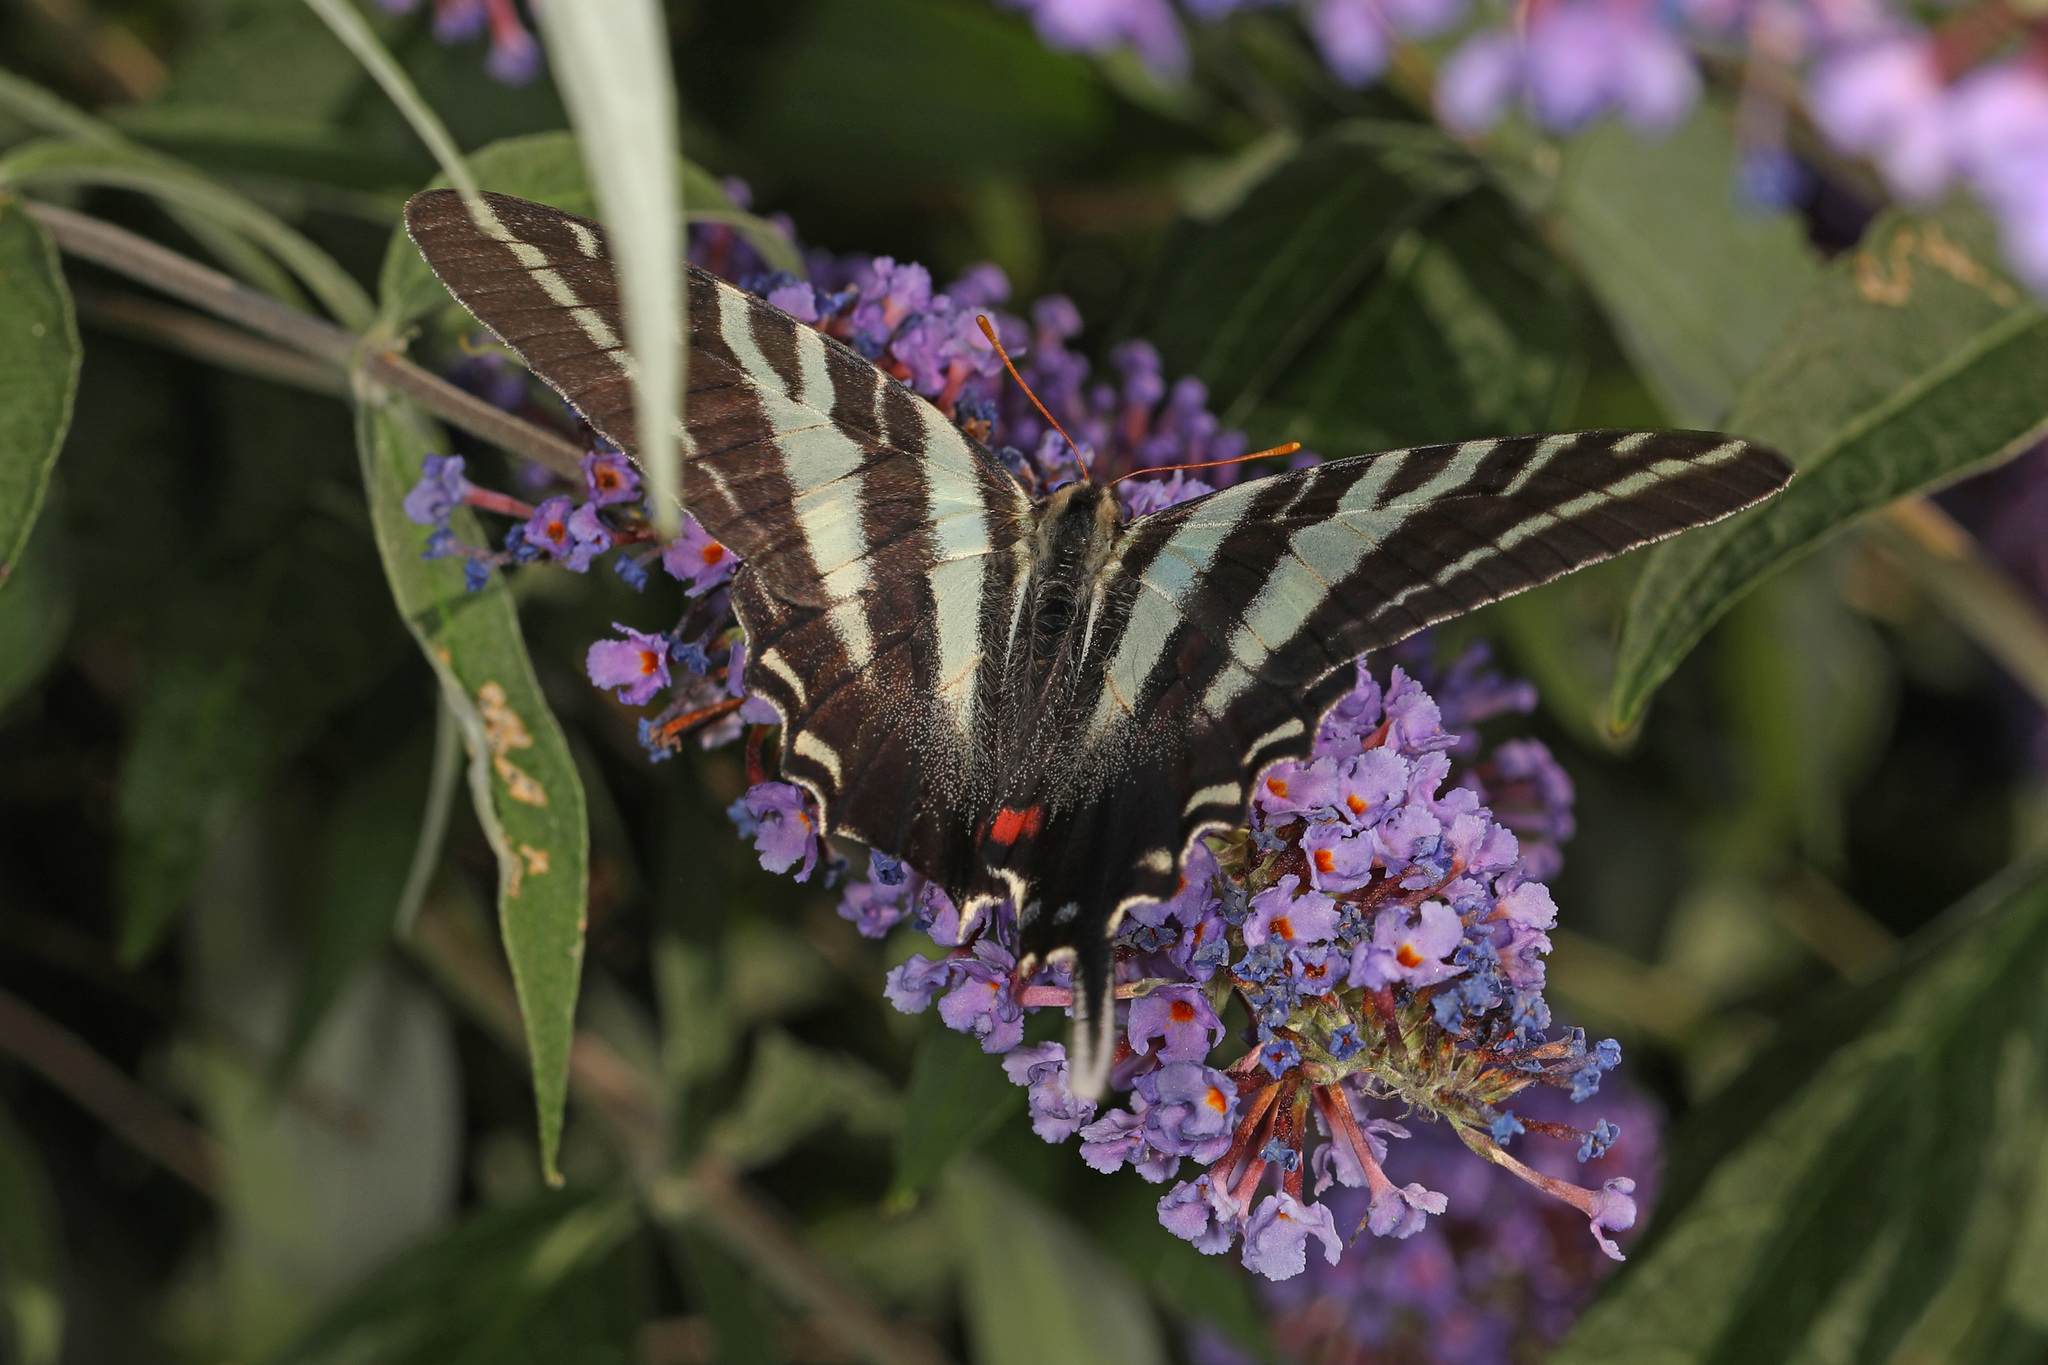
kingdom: Animalia
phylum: Arthropoda
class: Insecta
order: Lepidoptera
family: Papilionidae
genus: Protographium
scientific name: Protographium marcellus
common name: Zebra swallowtail
